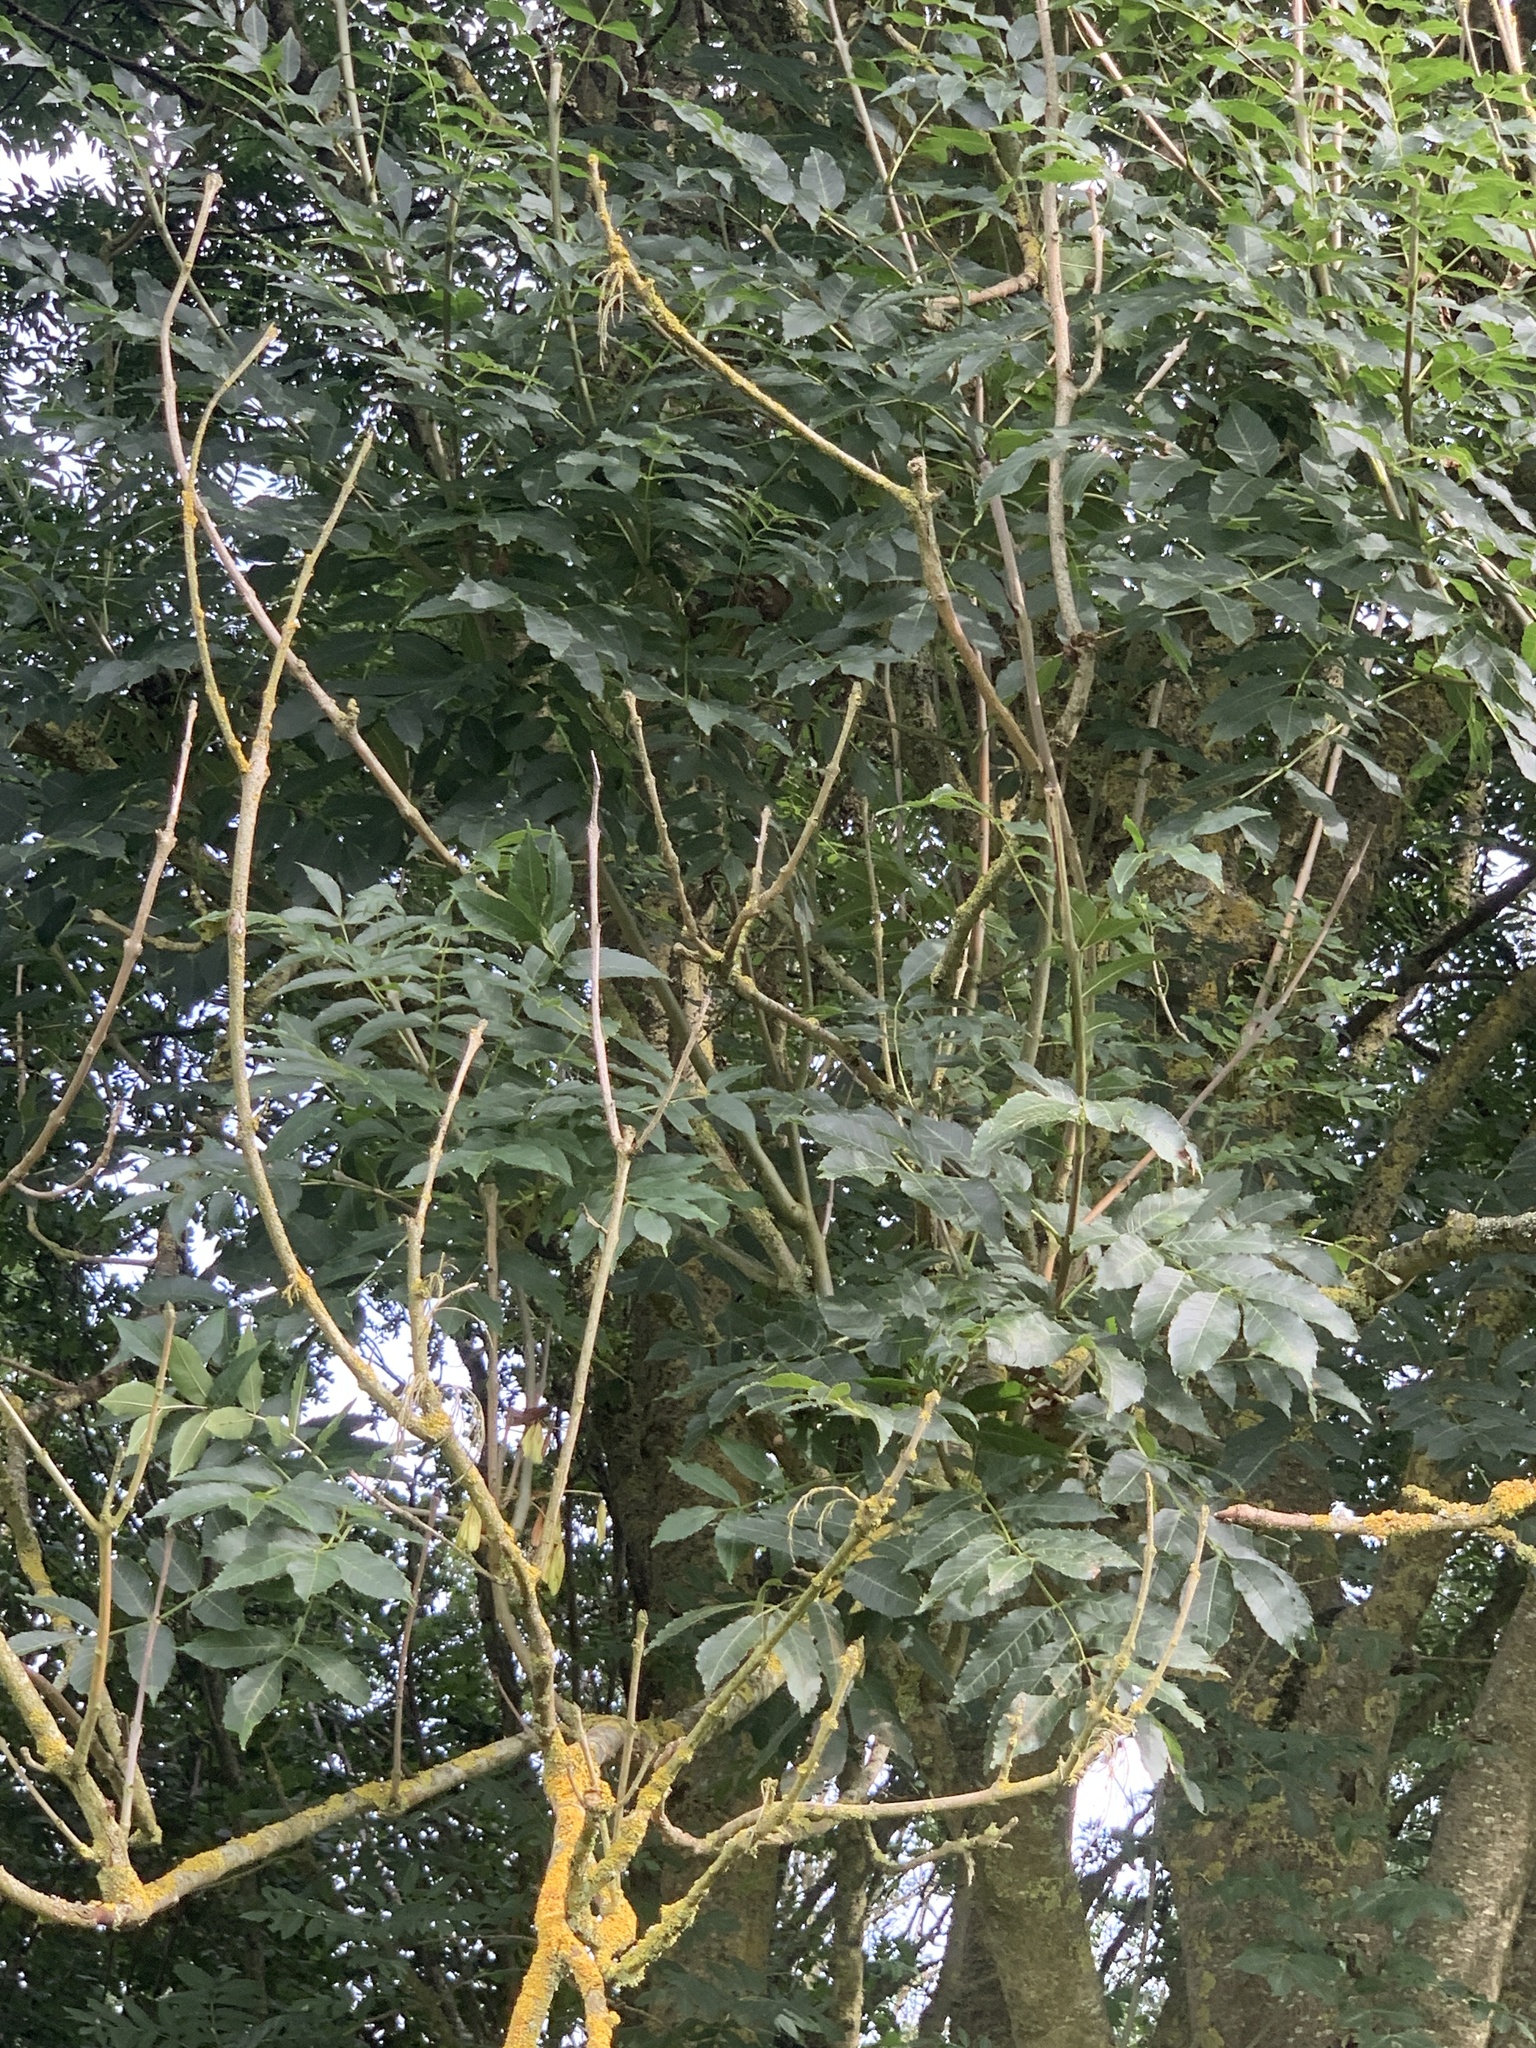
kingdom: Plantae
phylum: Tracheophyta
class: Magnoliopsida
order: Lamiales
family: Oleaceae
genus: Fraxinus
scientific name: Fraxinus excelsior
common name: European ash
